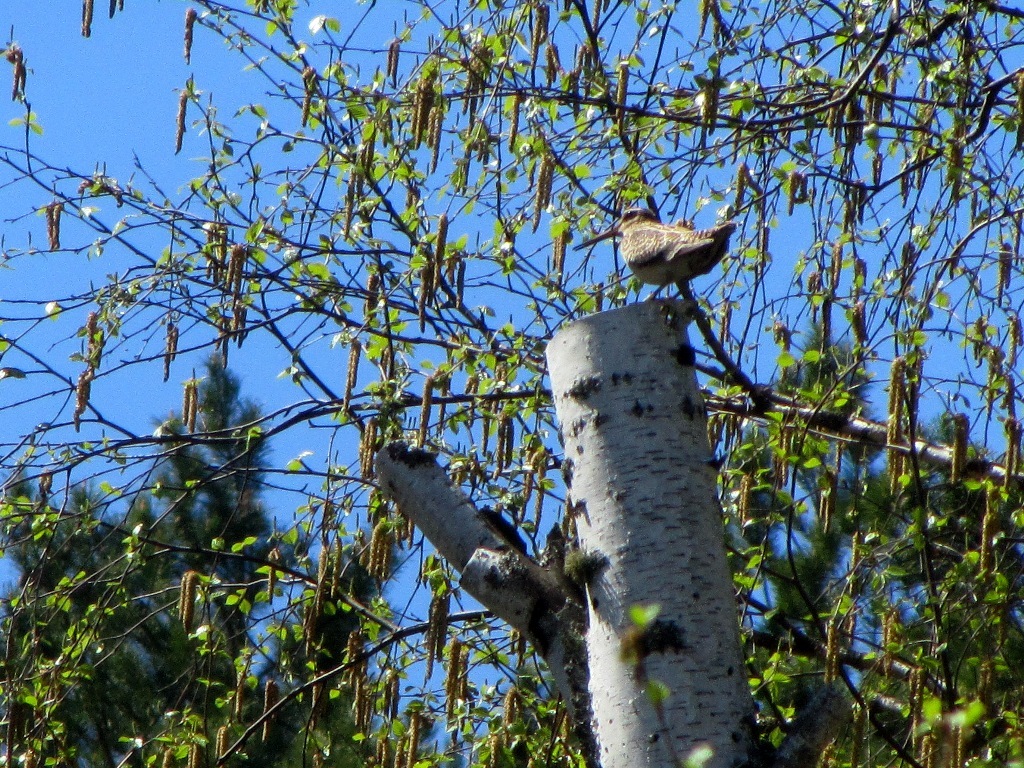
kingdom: Animalia
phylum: Chordata
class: Aves
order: Charadriiformes
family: Scolopacidae
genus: Gallinago
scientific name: Gallinago megala
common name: Swinhoe's snipe
